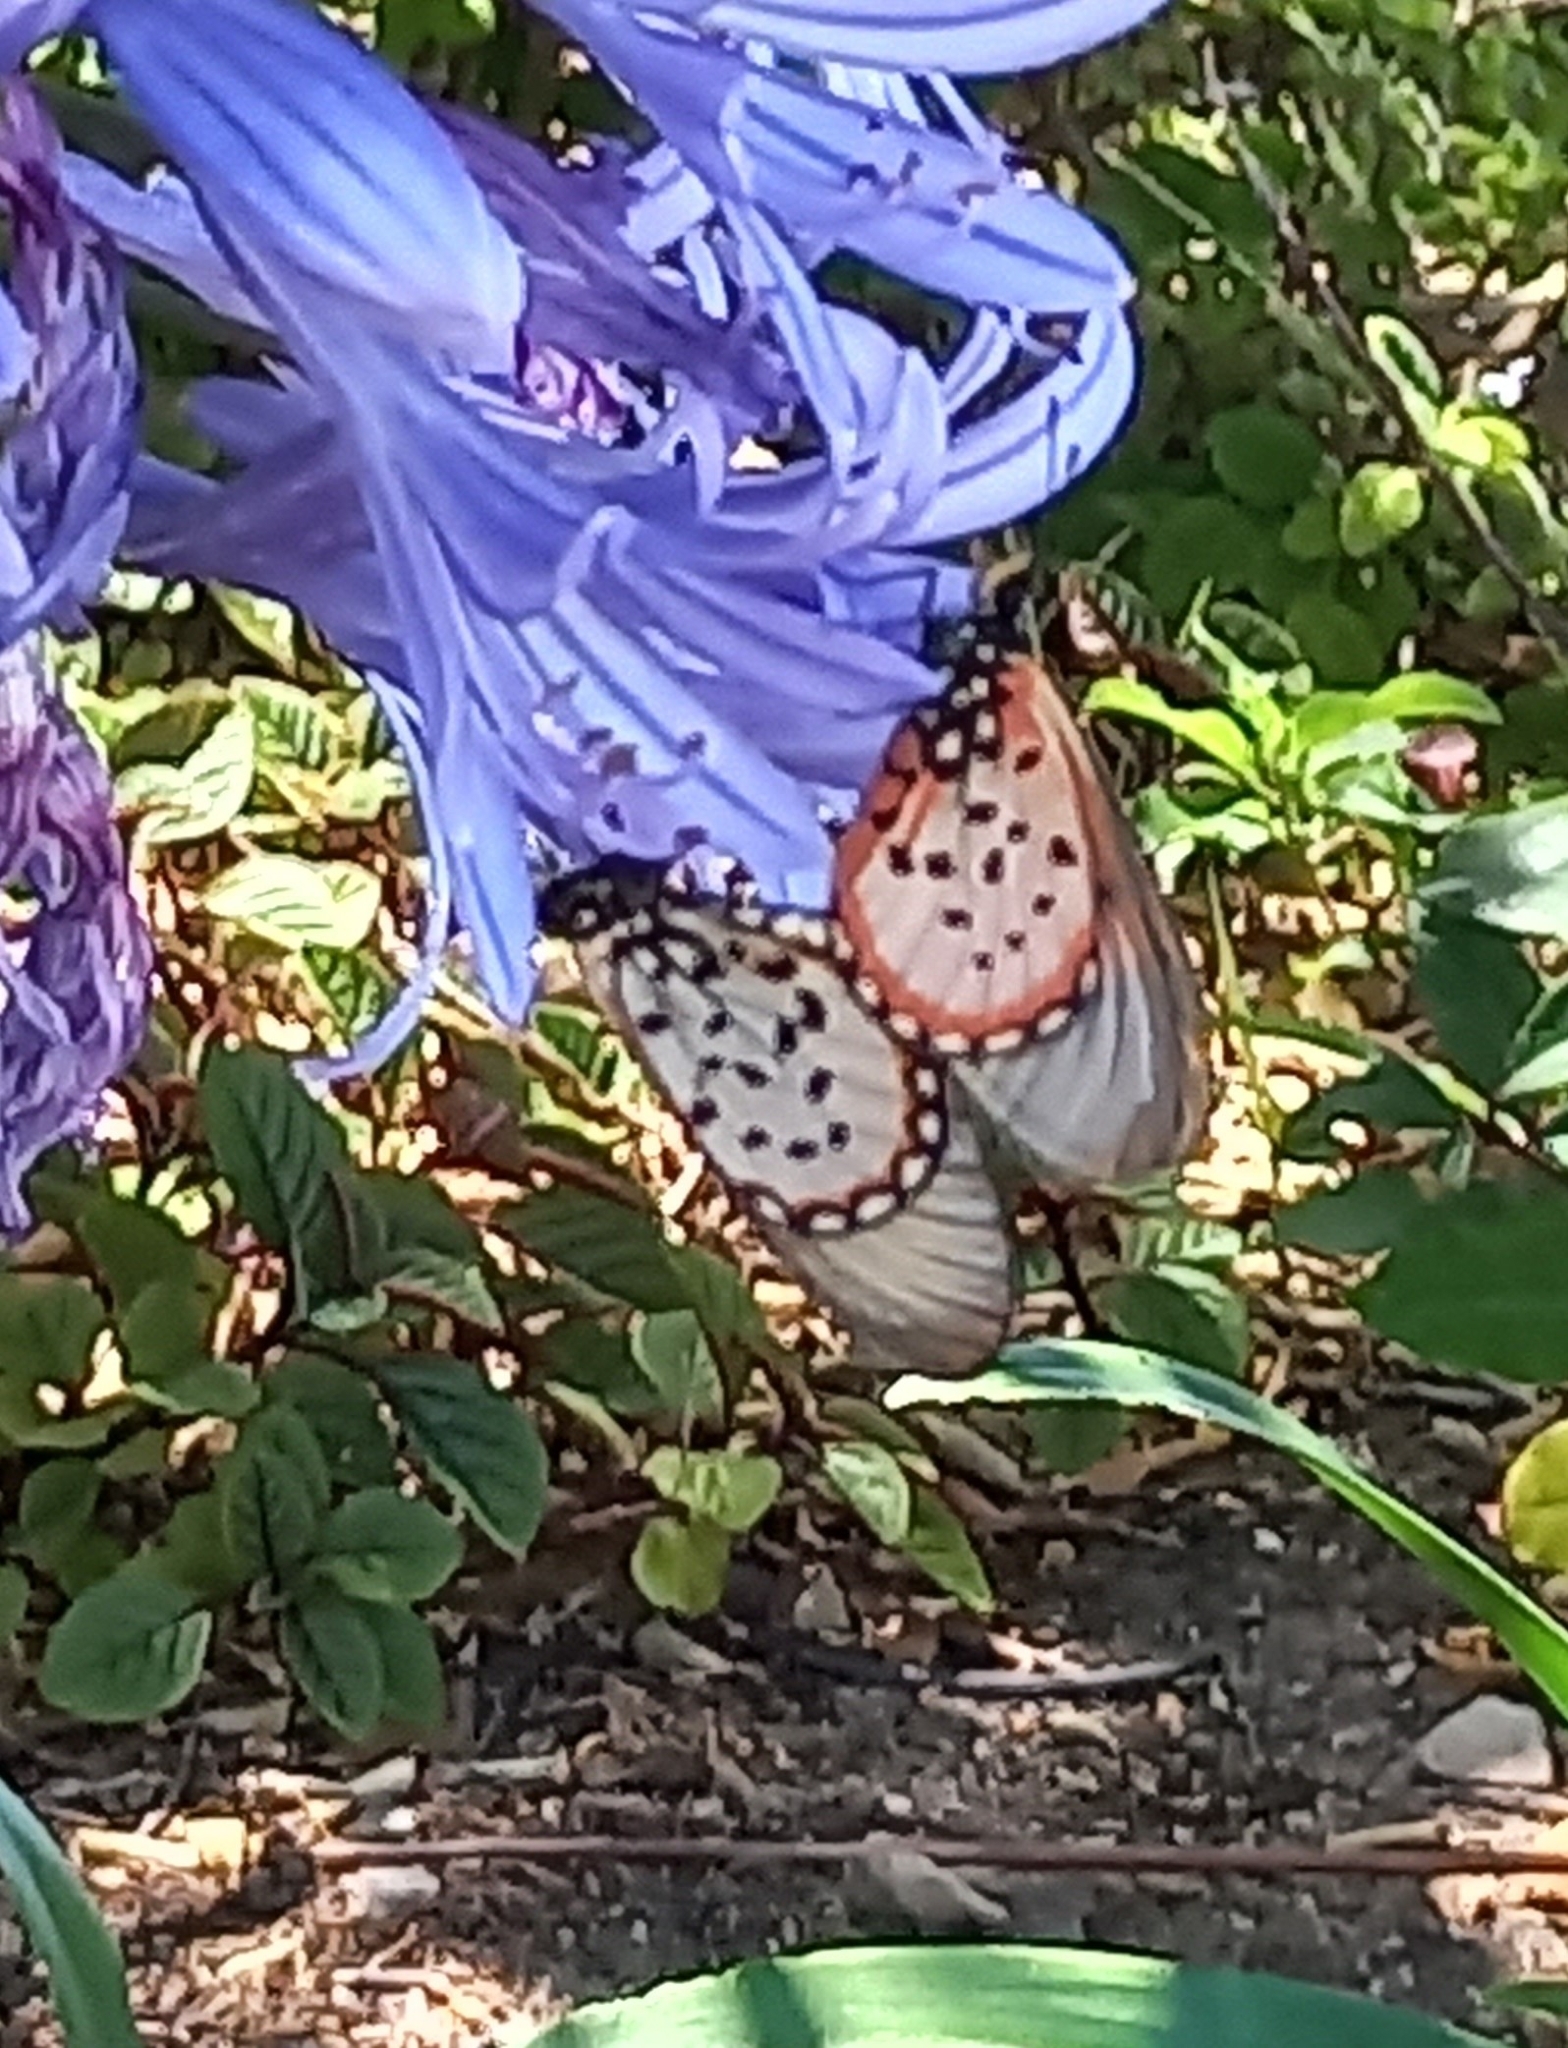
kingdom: Animalia
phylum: Arthropoda
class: Insecta
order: Lepidoptera
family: Nymphalidae
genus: Acraea
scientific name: Acraea horta
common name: Garden acraea
